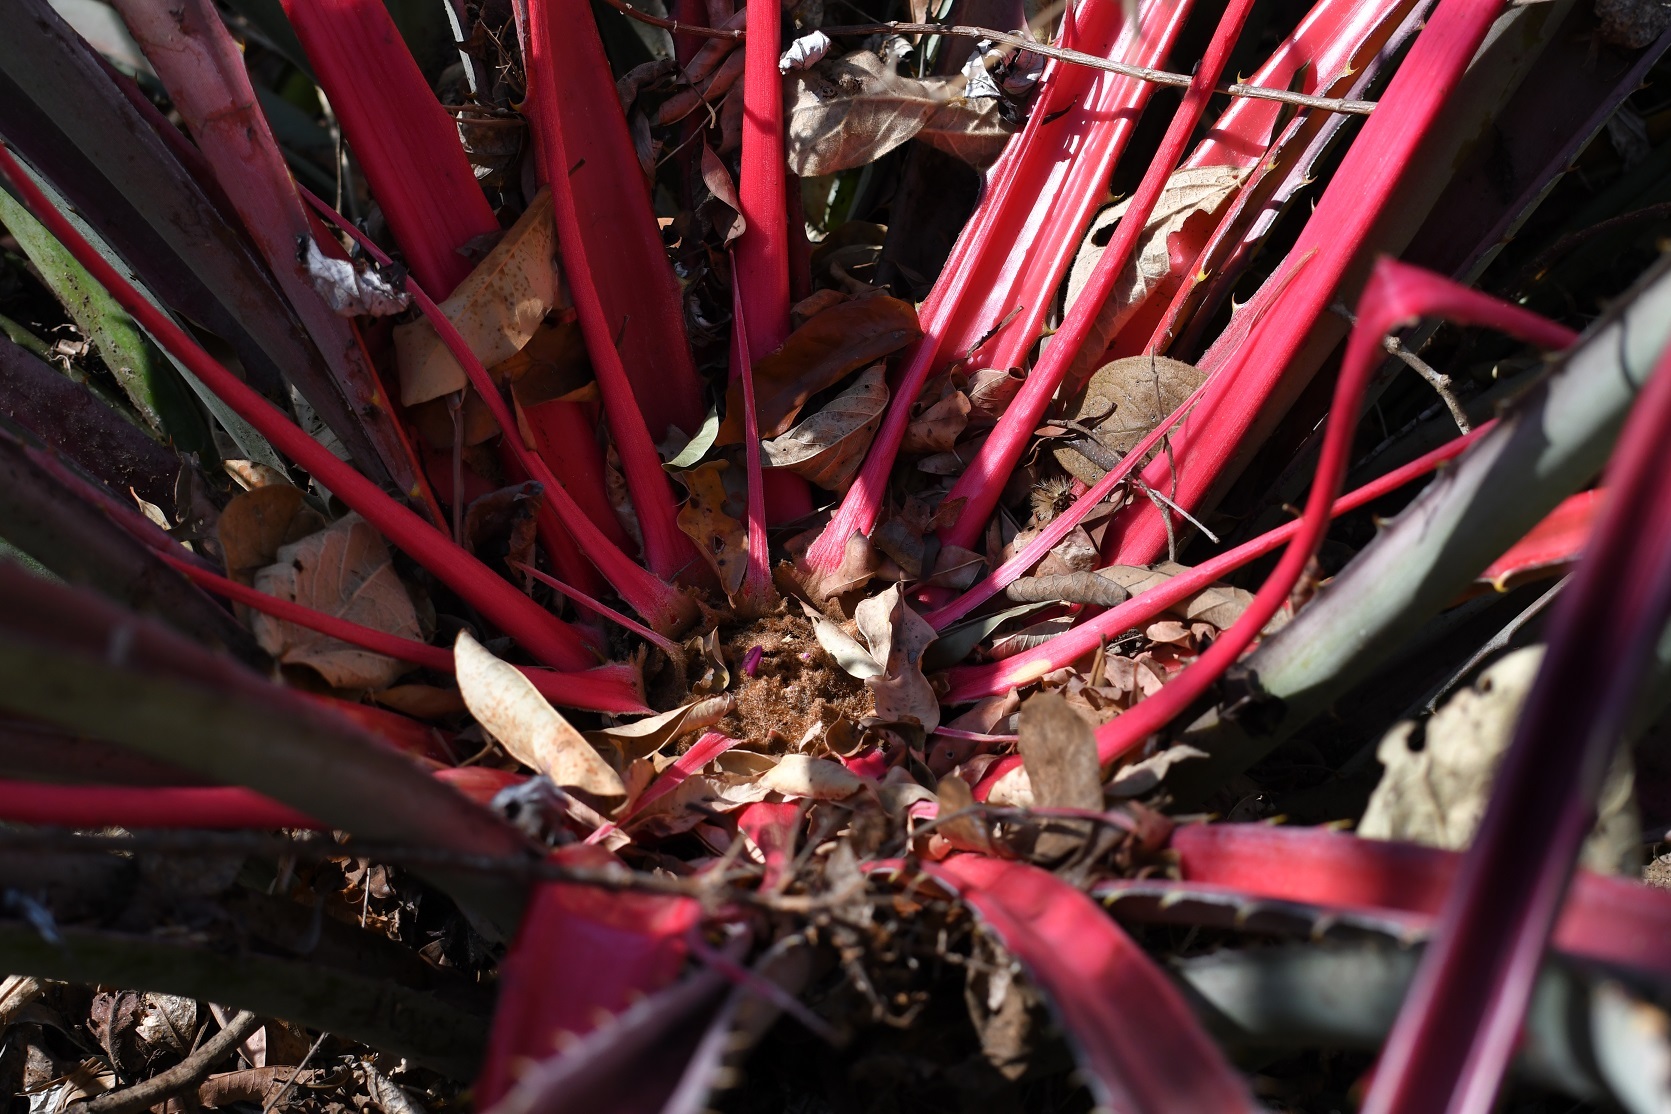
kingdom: Plantae
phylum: Tracheophyta
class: Liliopsida
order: Poales
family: Bromeliaceae
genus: Bromelia
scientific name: Bromelia karatas
